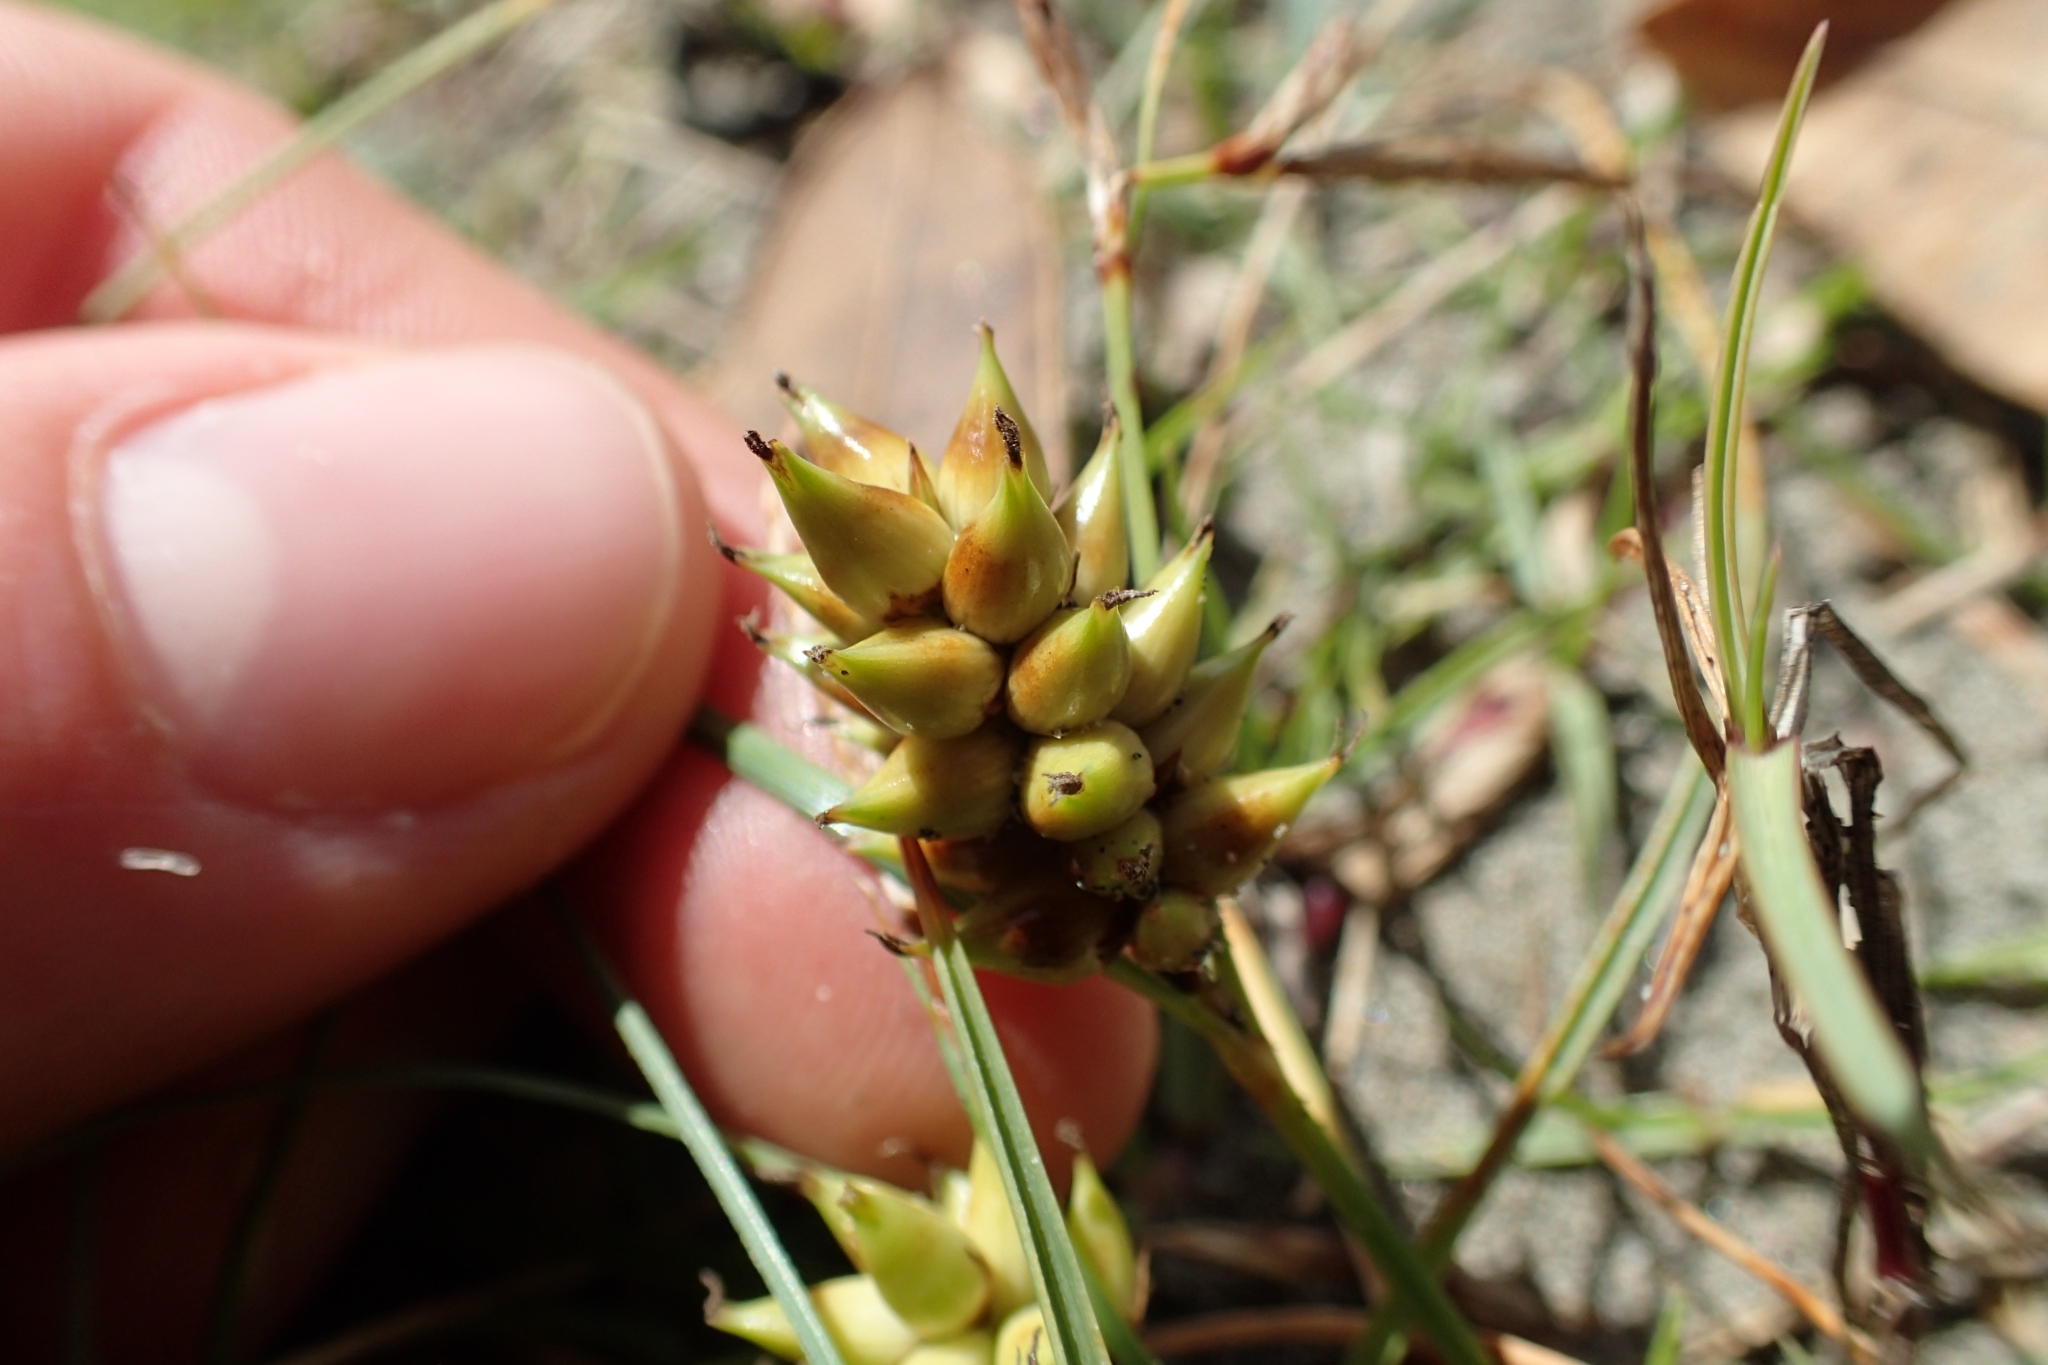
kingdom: Plantae
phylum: Tracheophyta
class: Liliopsida
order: Poales
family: Cyperaceae
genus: Carex
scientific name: Carex pumila
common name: Dwarf sedge
